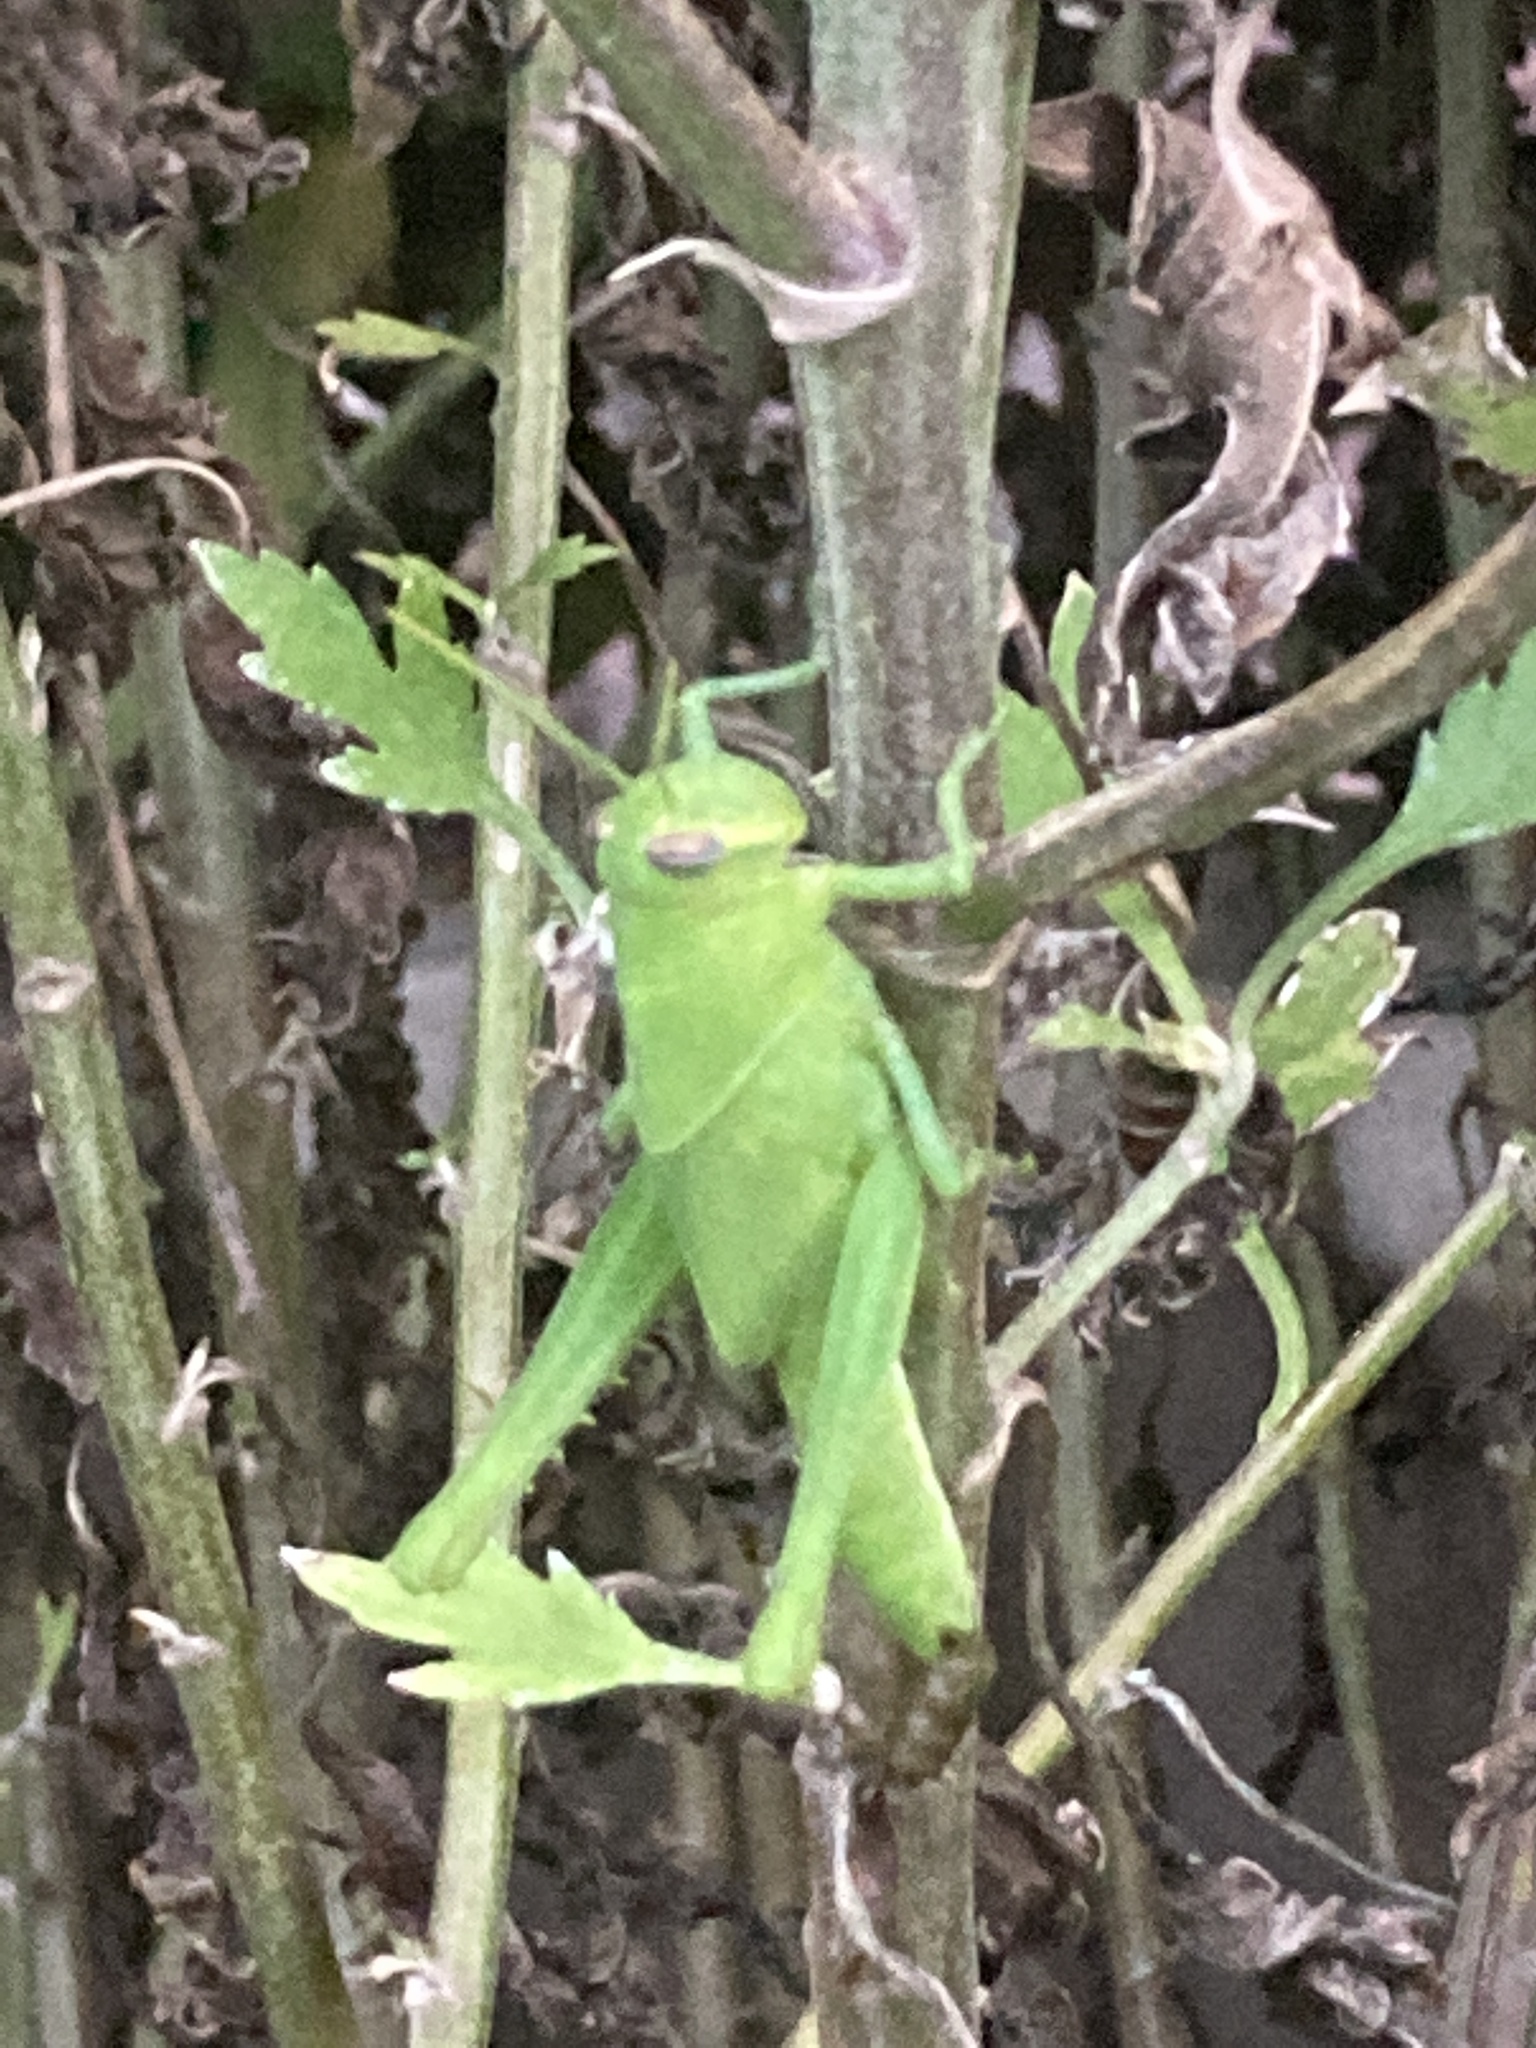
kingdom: Animalia
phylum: Arthropoda
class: Insecta
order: Orthoptera
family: Acrididae
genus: Schistocerca
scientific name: Schistocerca nitens
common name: Vagrant grasshopper
